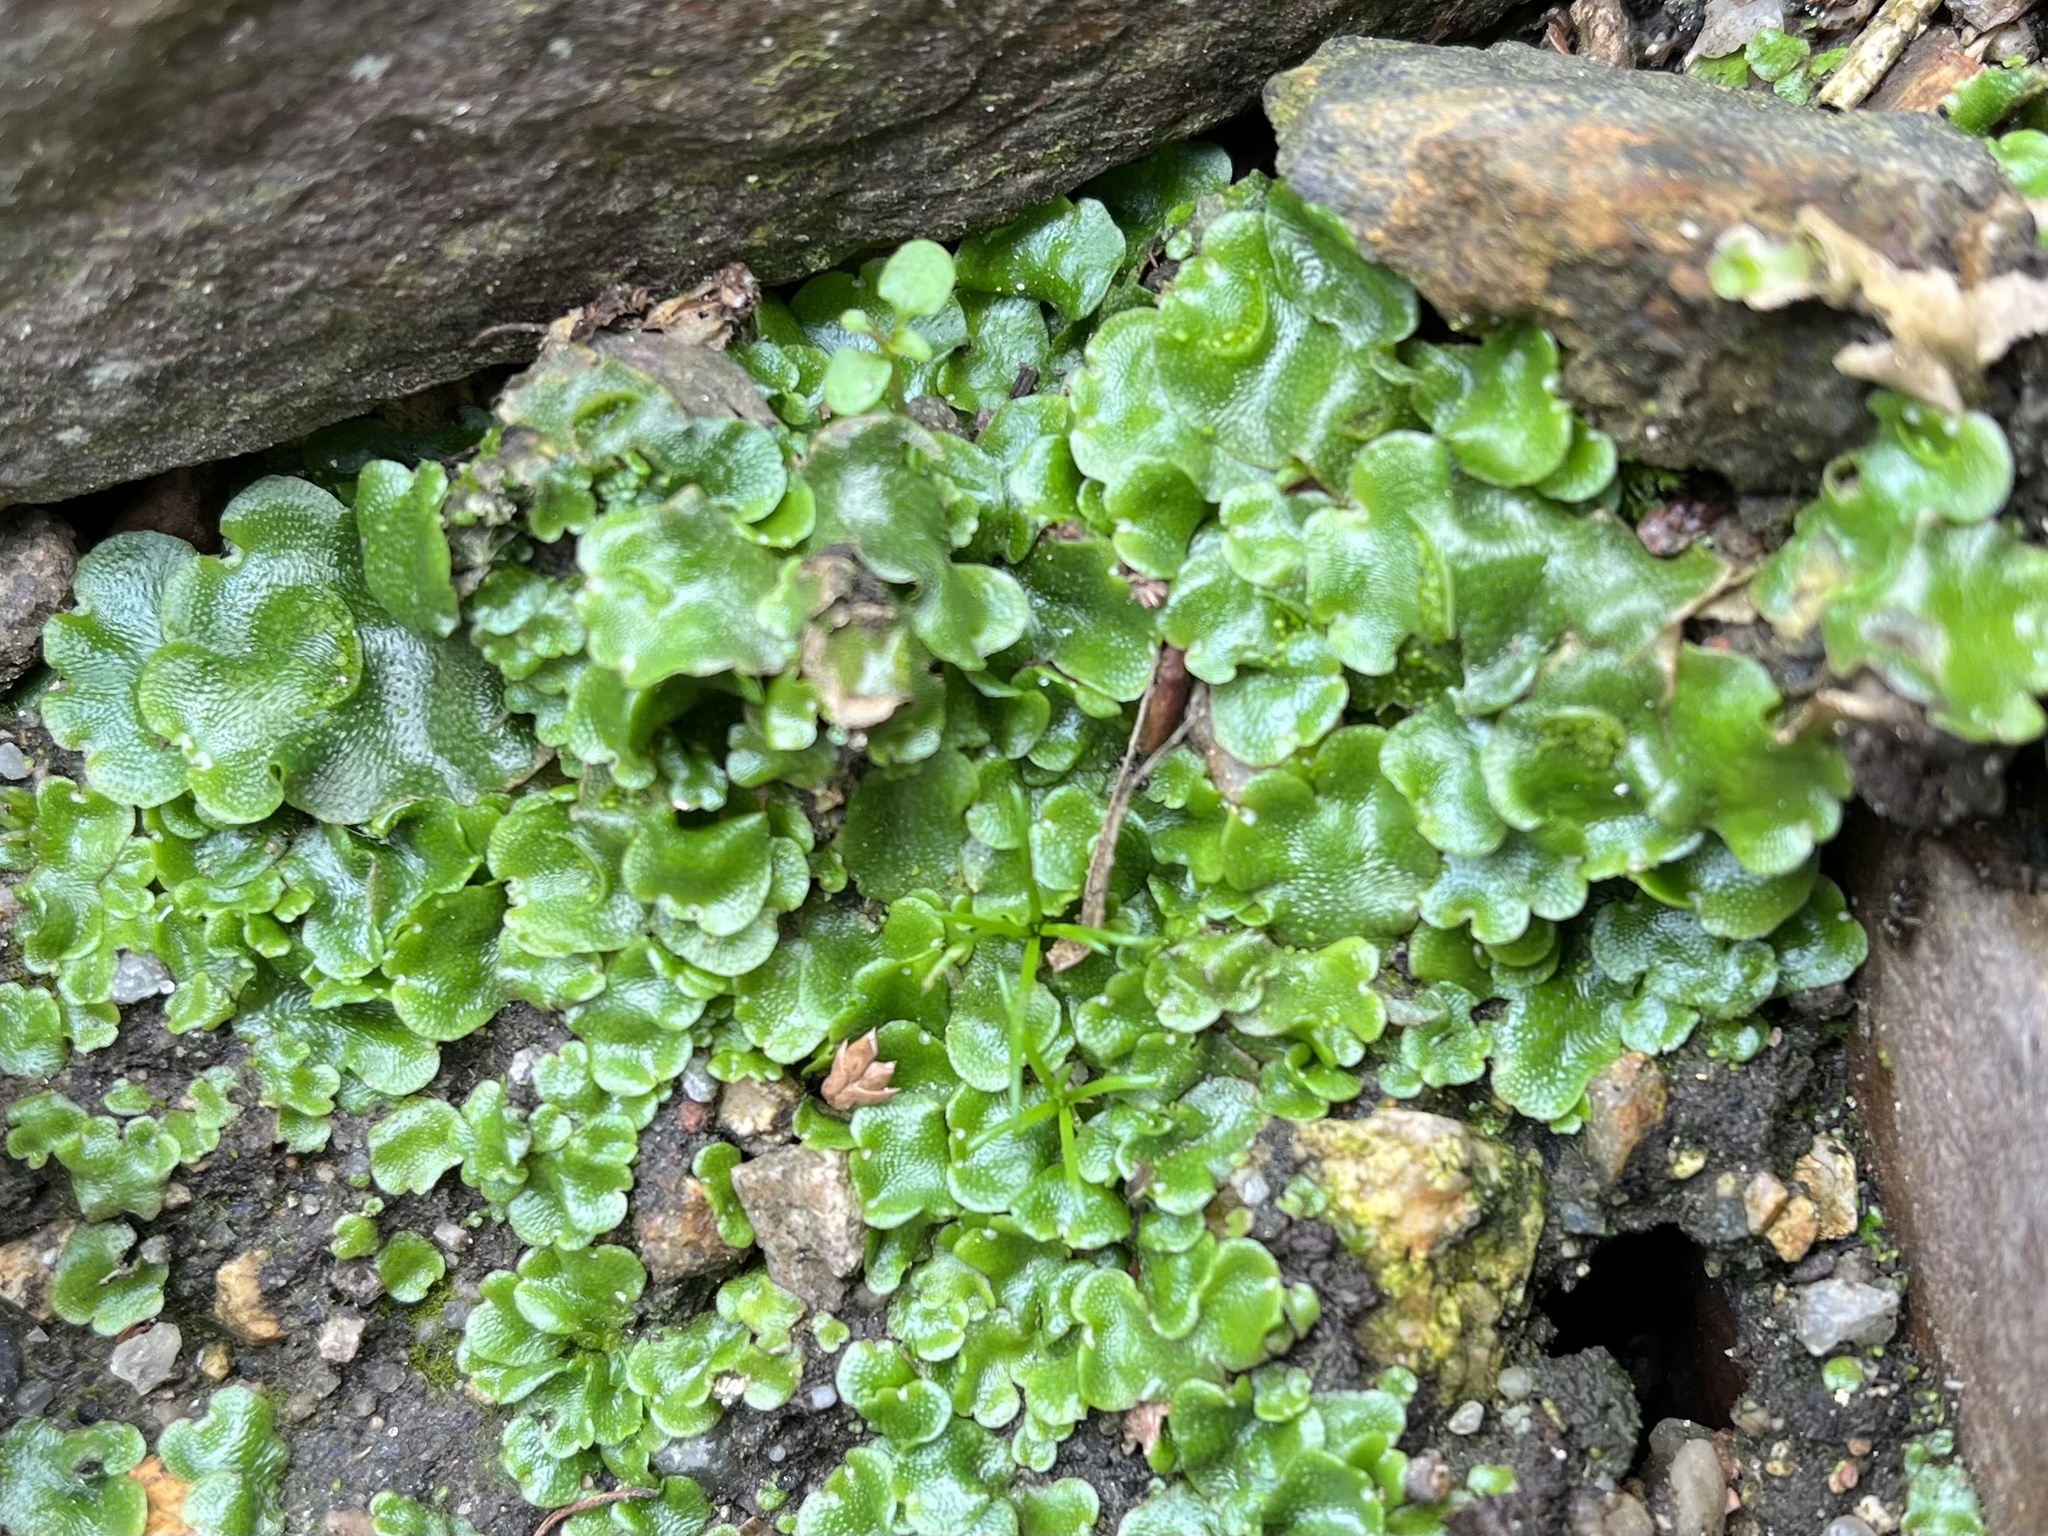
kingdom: Plantae
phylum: Marchantiophyta
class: Marchantiopsida
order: Lunulariales
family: Lunulariaceae
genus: Lunularia
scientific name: Lunularia cruciata
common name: Crescent-cup liverwort
